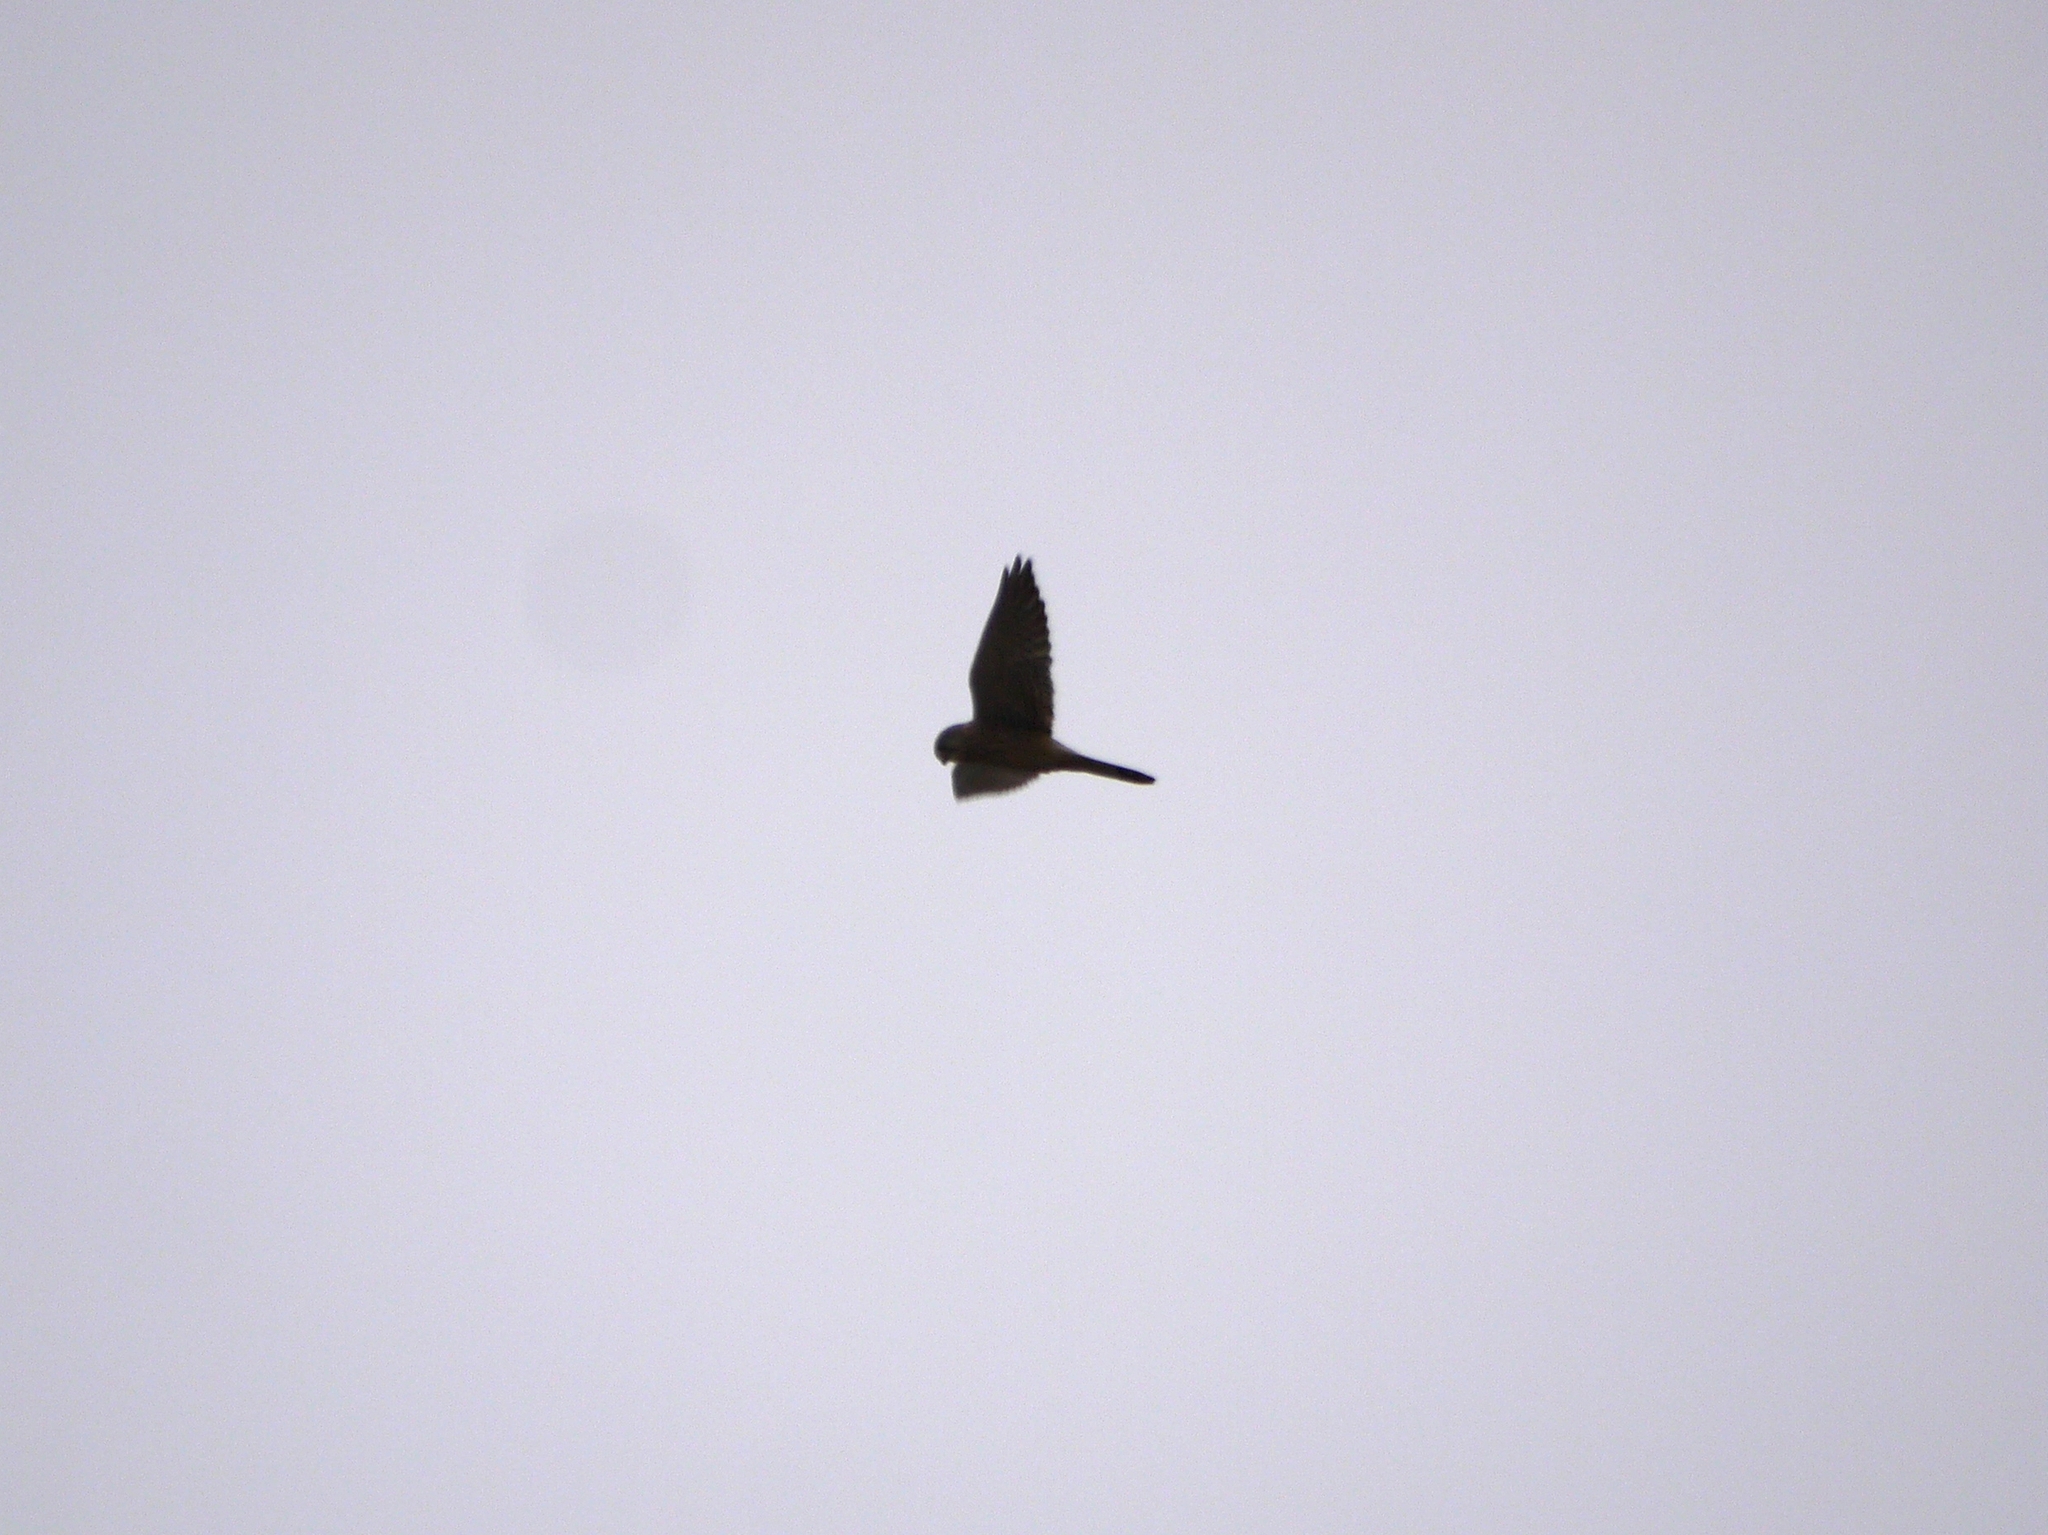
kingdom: Animalia
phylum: Chordata
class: Aves
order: Falconiformes
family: Falconidae
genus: Falco
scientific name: Falco tinnunculus
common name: Common kestrel
